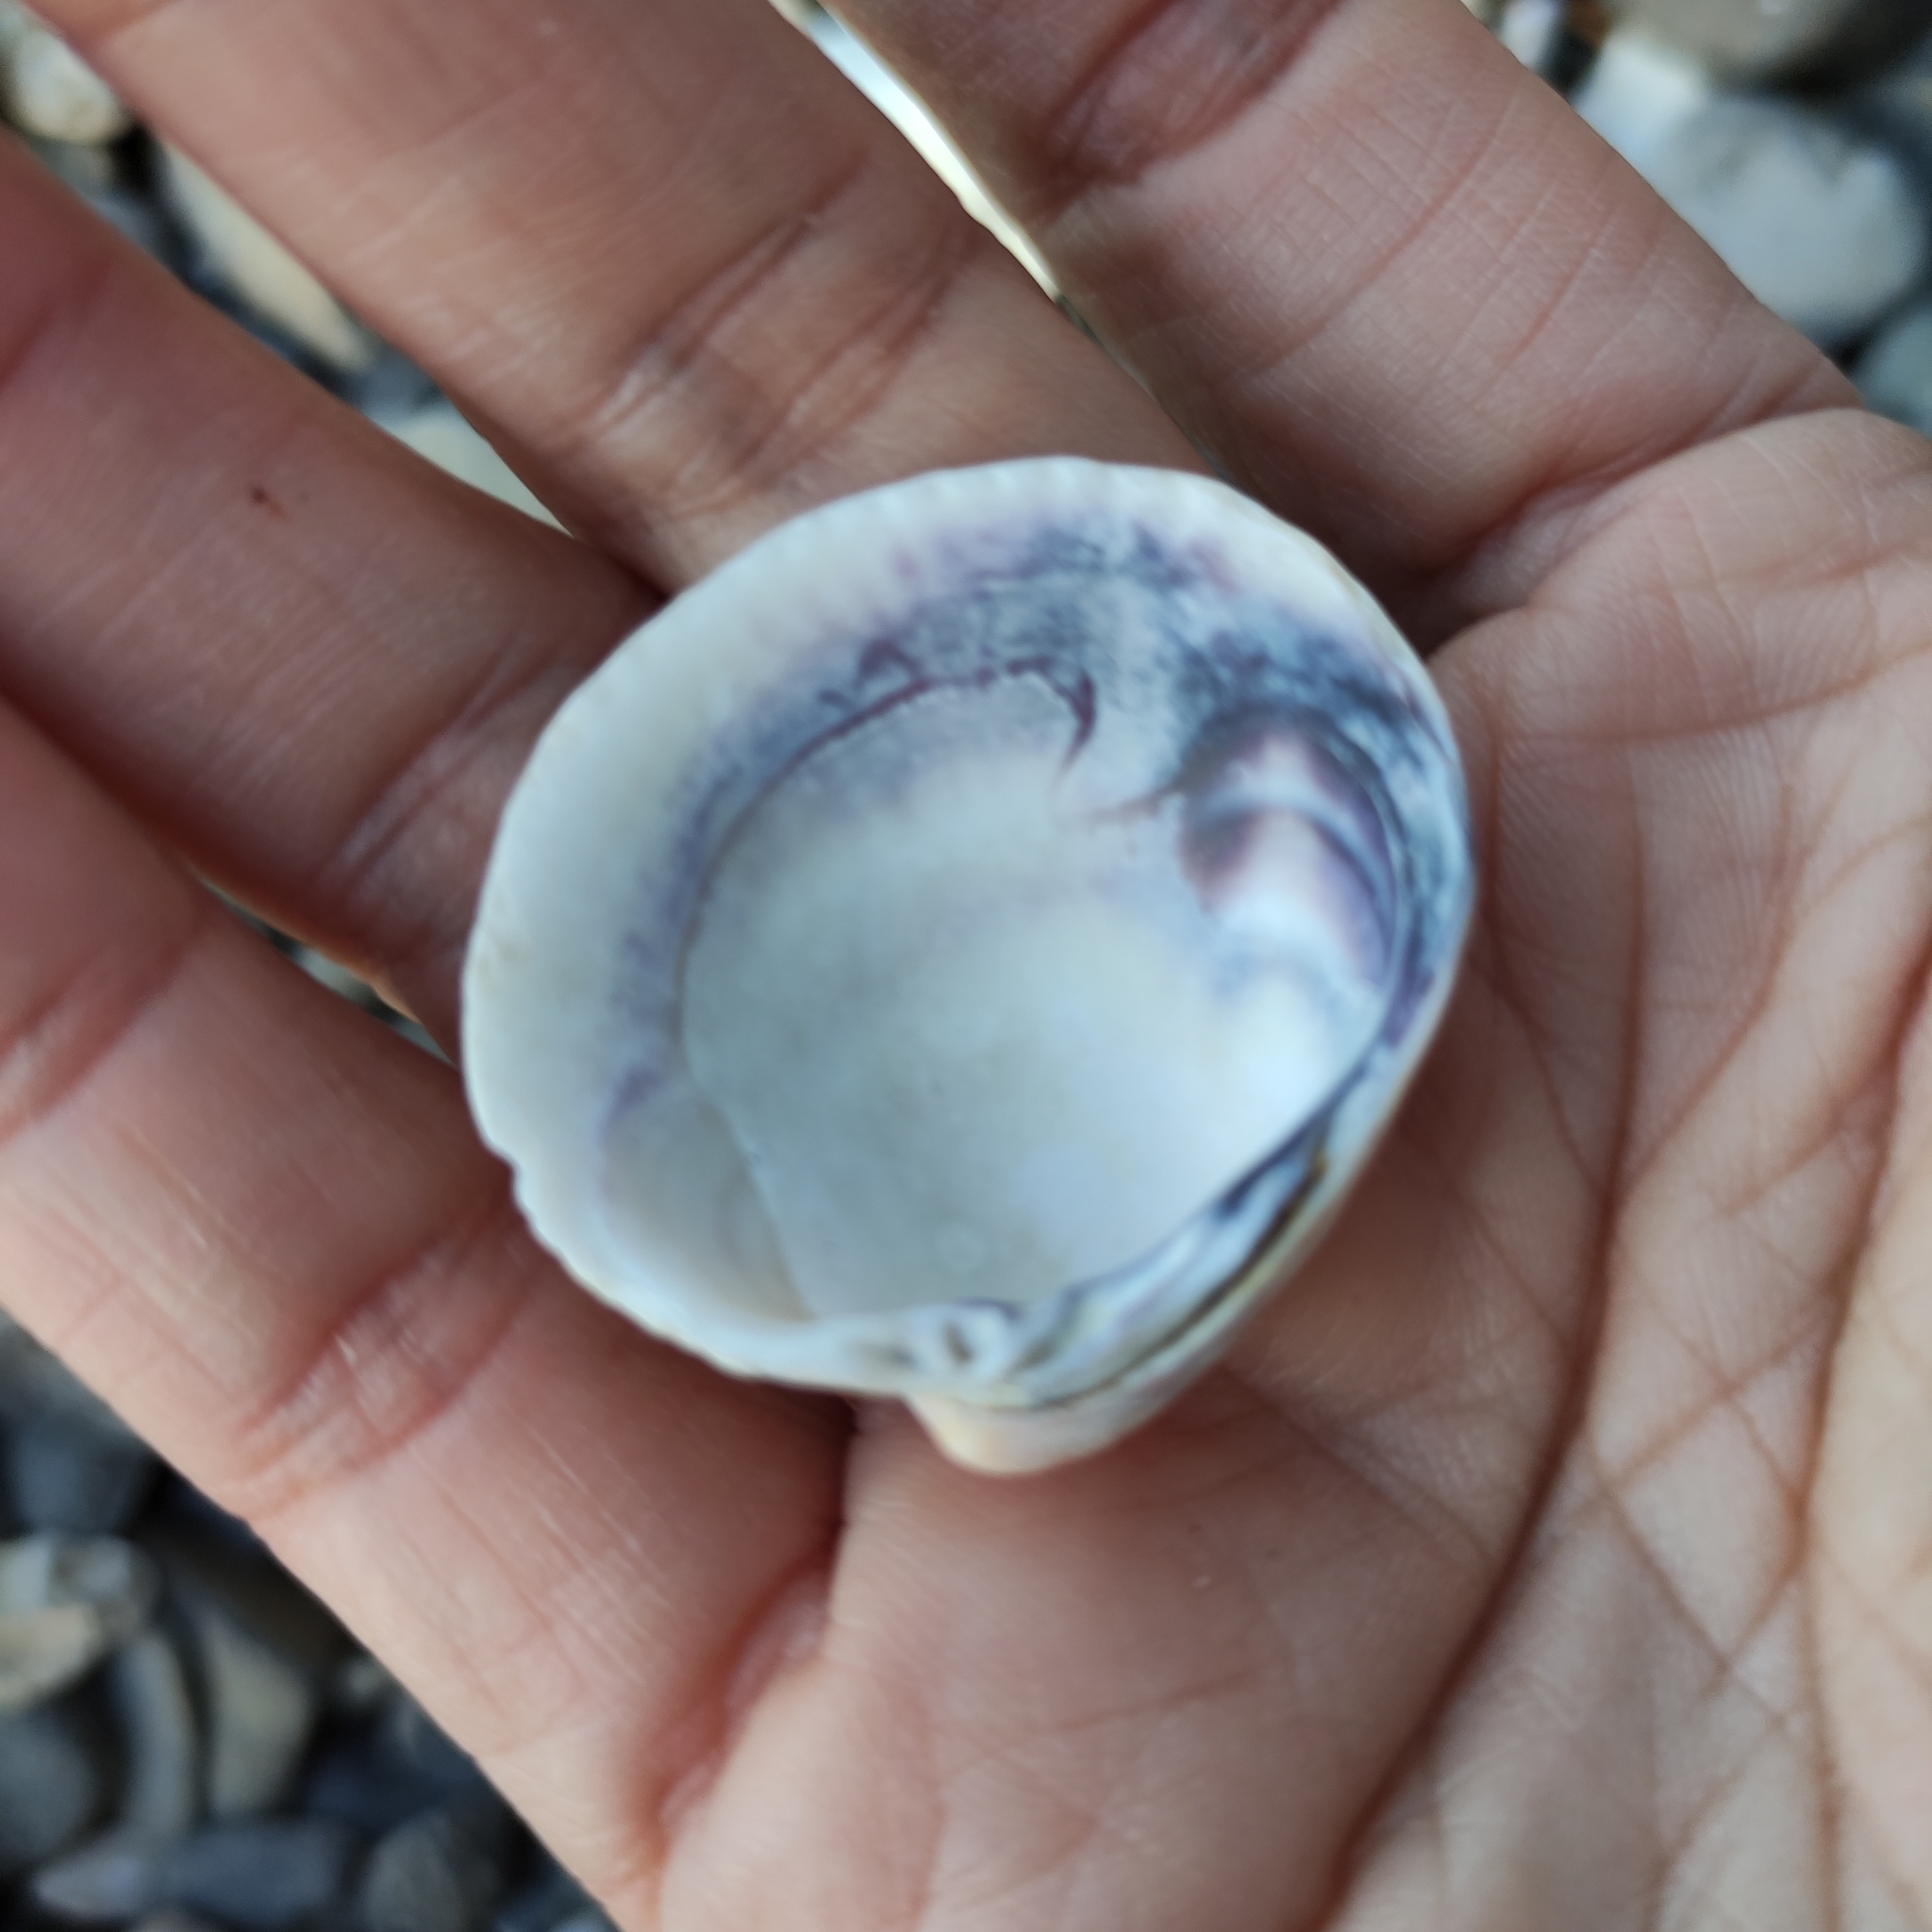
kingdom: Animalia
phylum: Mollusca
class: Bivalvia
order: Venerida
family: Veneridae
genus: Austrovenus
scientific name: Austrovenus stutchburyi
